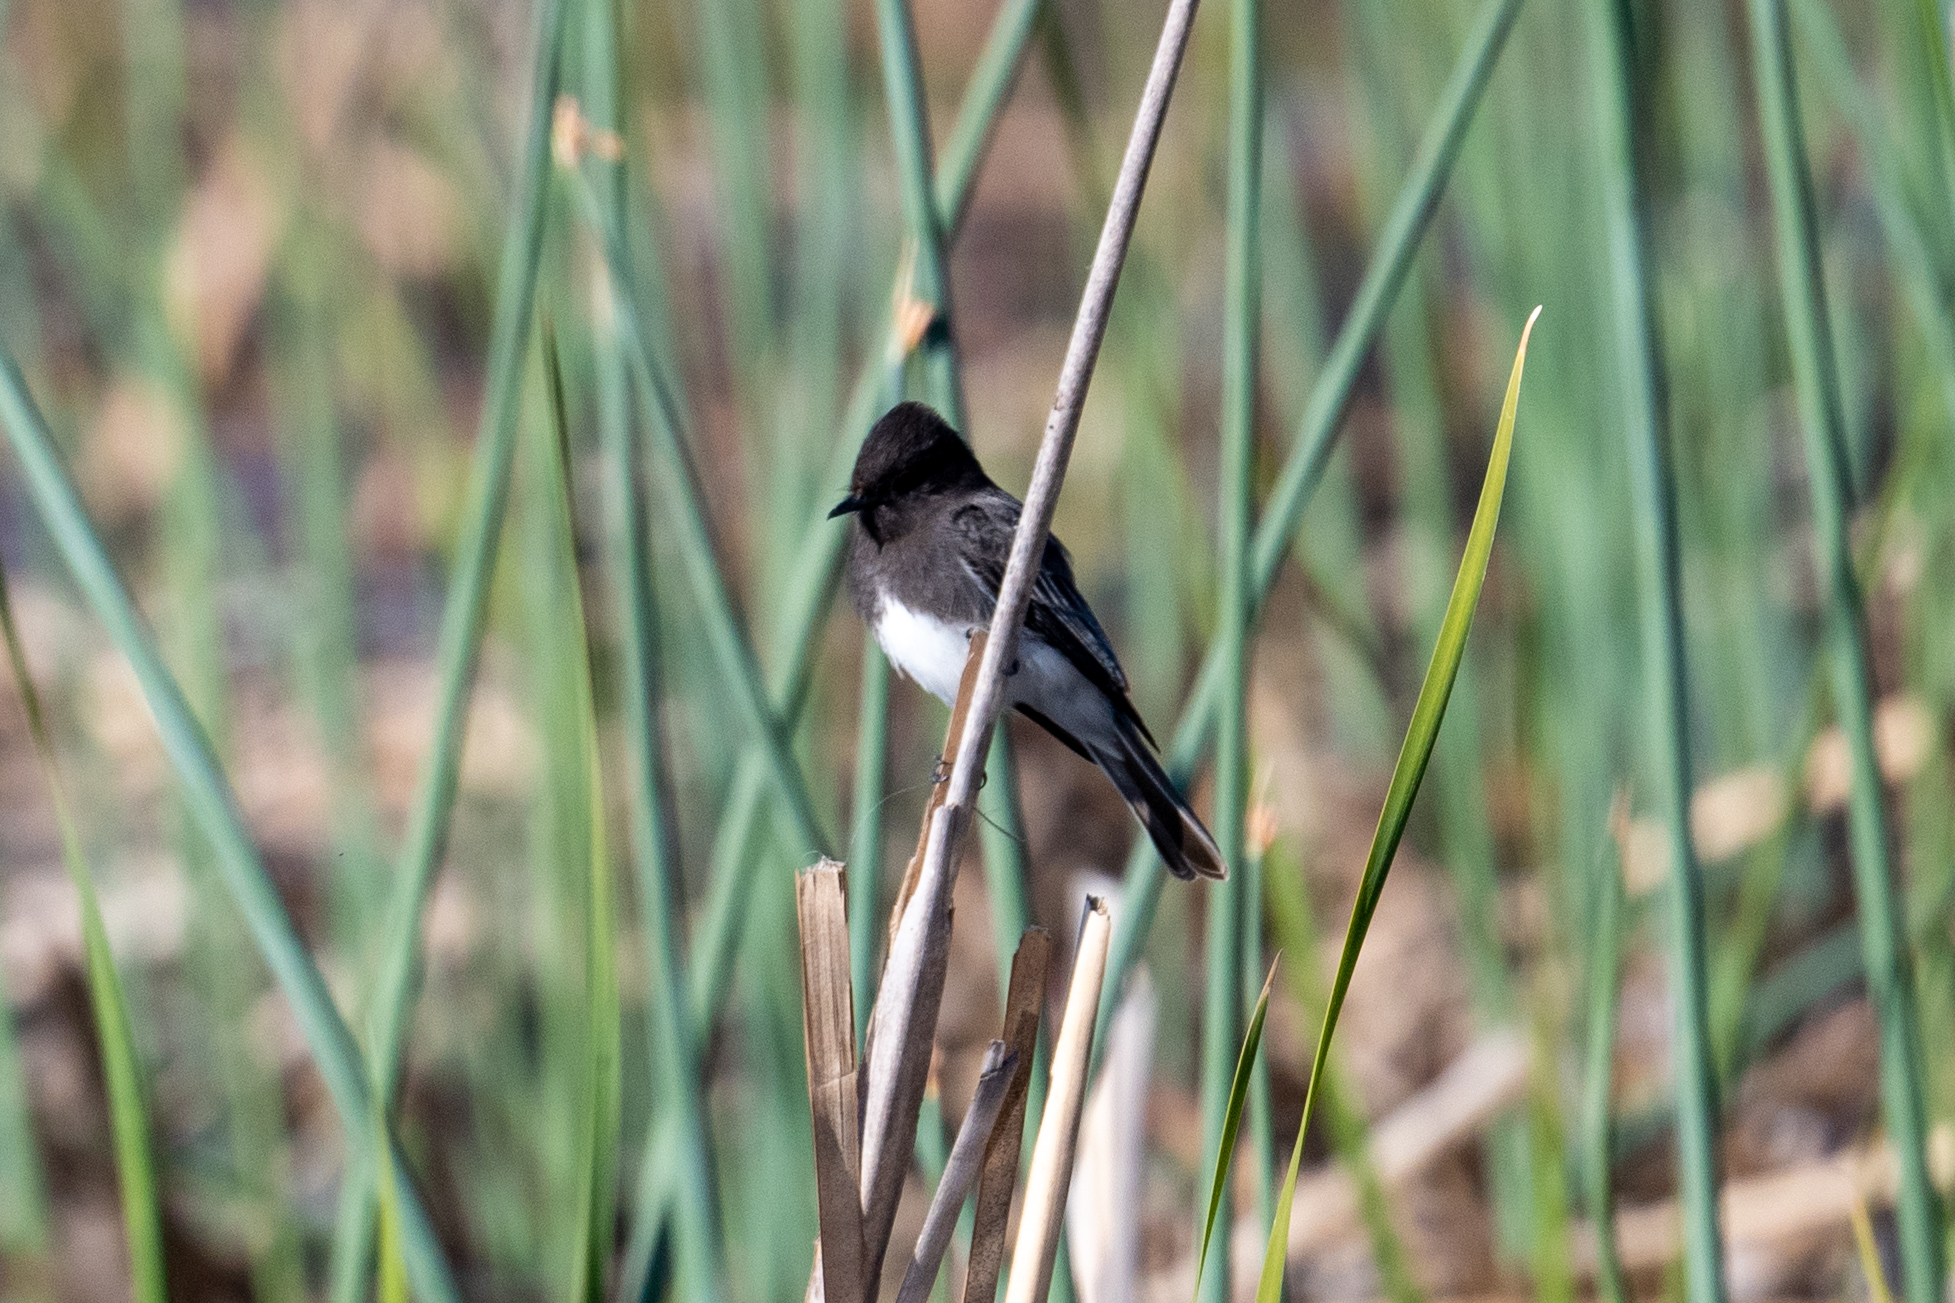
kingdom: Animalia
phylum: Chordata
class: Aves
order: Passeriformes
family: Tyrannidae
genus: Sayornis
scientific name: Sayornis nigricans
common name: Black phoebe
